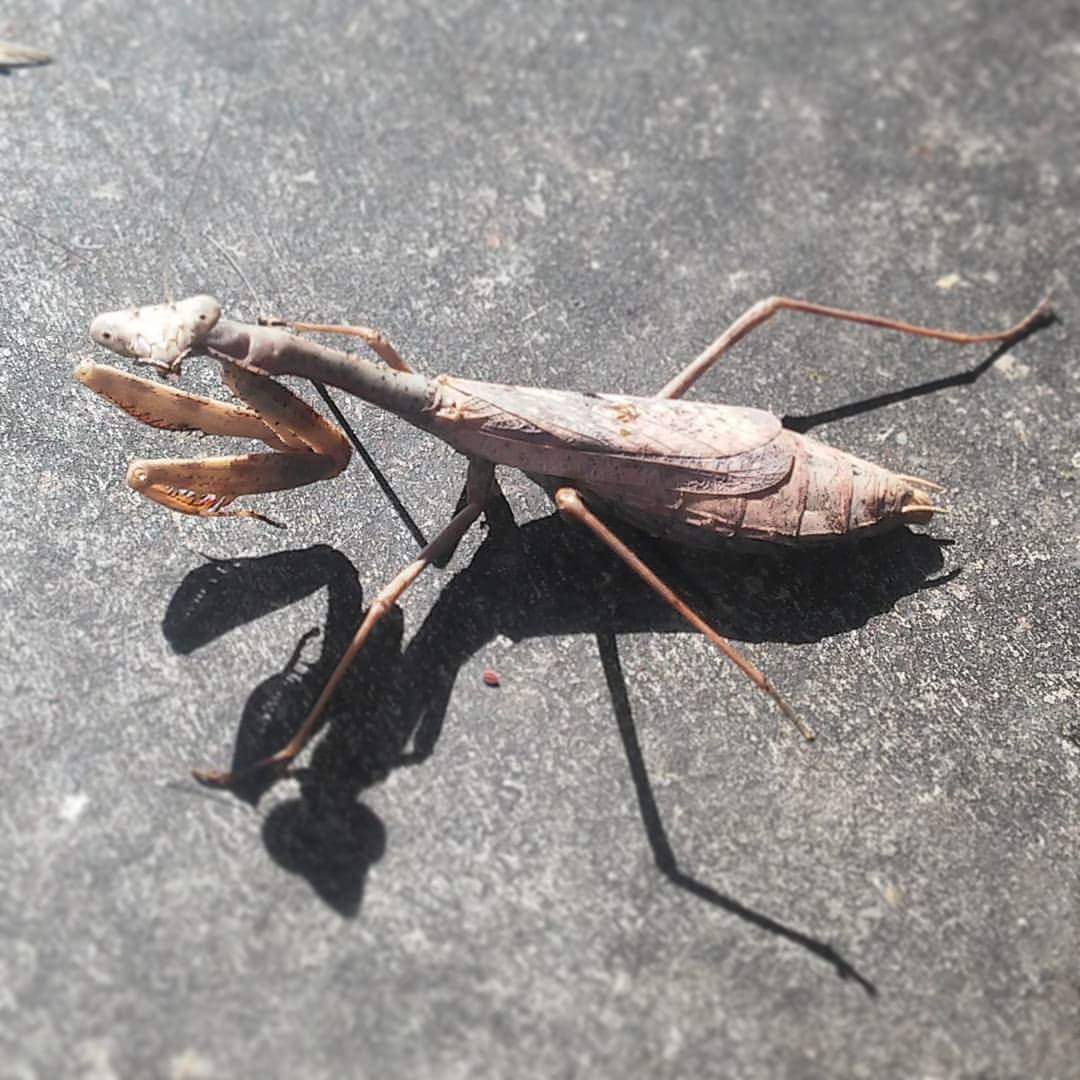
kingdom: Animalia
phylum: Arthropoda
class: Insecta
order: Mantodea
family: Mantidae
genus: Stagmomantis
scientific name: Stagmomantis carolina
